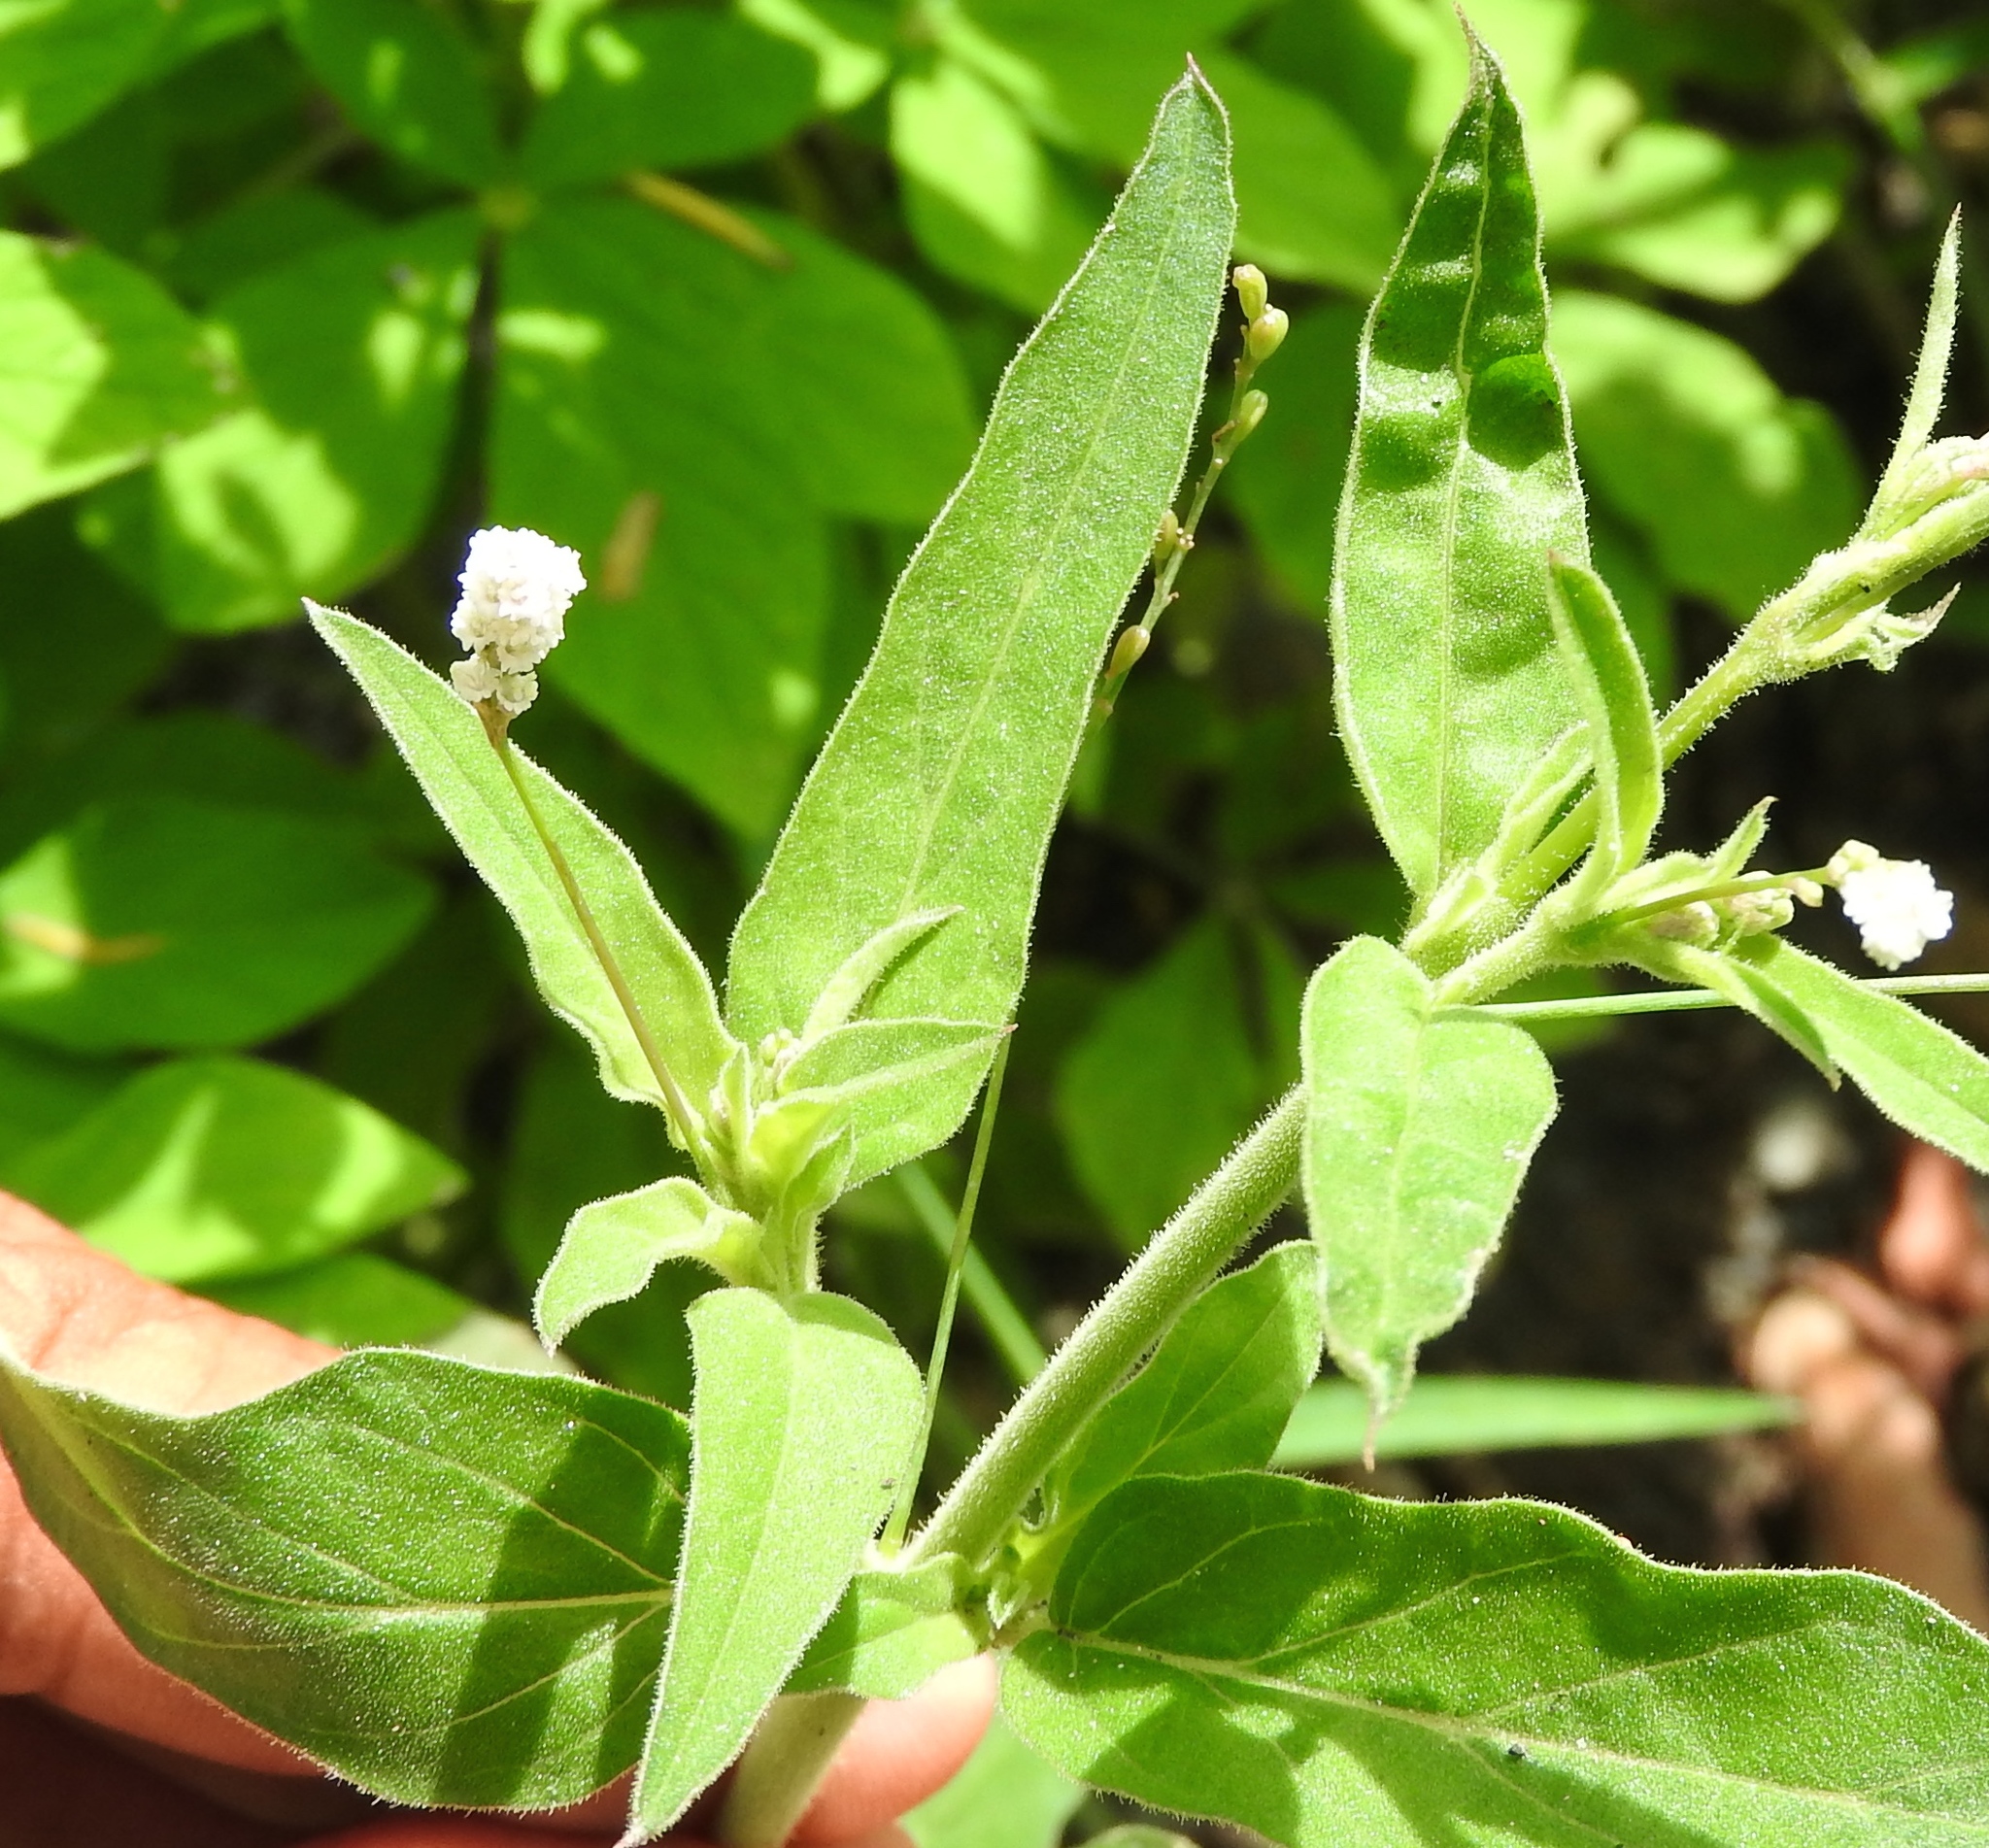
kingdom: Plantae
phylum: Tracheophyta
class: Magnoliopsida
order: Caryophyllales
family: Nyctaginaceae
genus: Boerhavia
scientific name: Boerhavia coulteri
